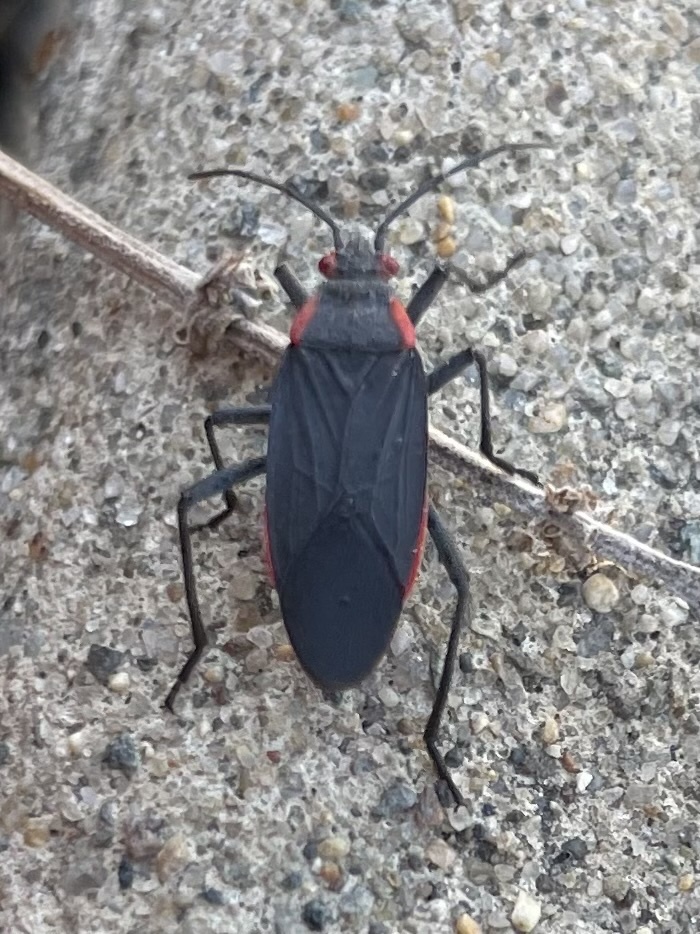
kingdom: Animalia
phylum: Arthropoda
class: Insecta
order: Hemiptera
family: Rhopalidae
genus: Jadera
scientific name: Jadera haematoloma
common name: Red-shouldered bug
